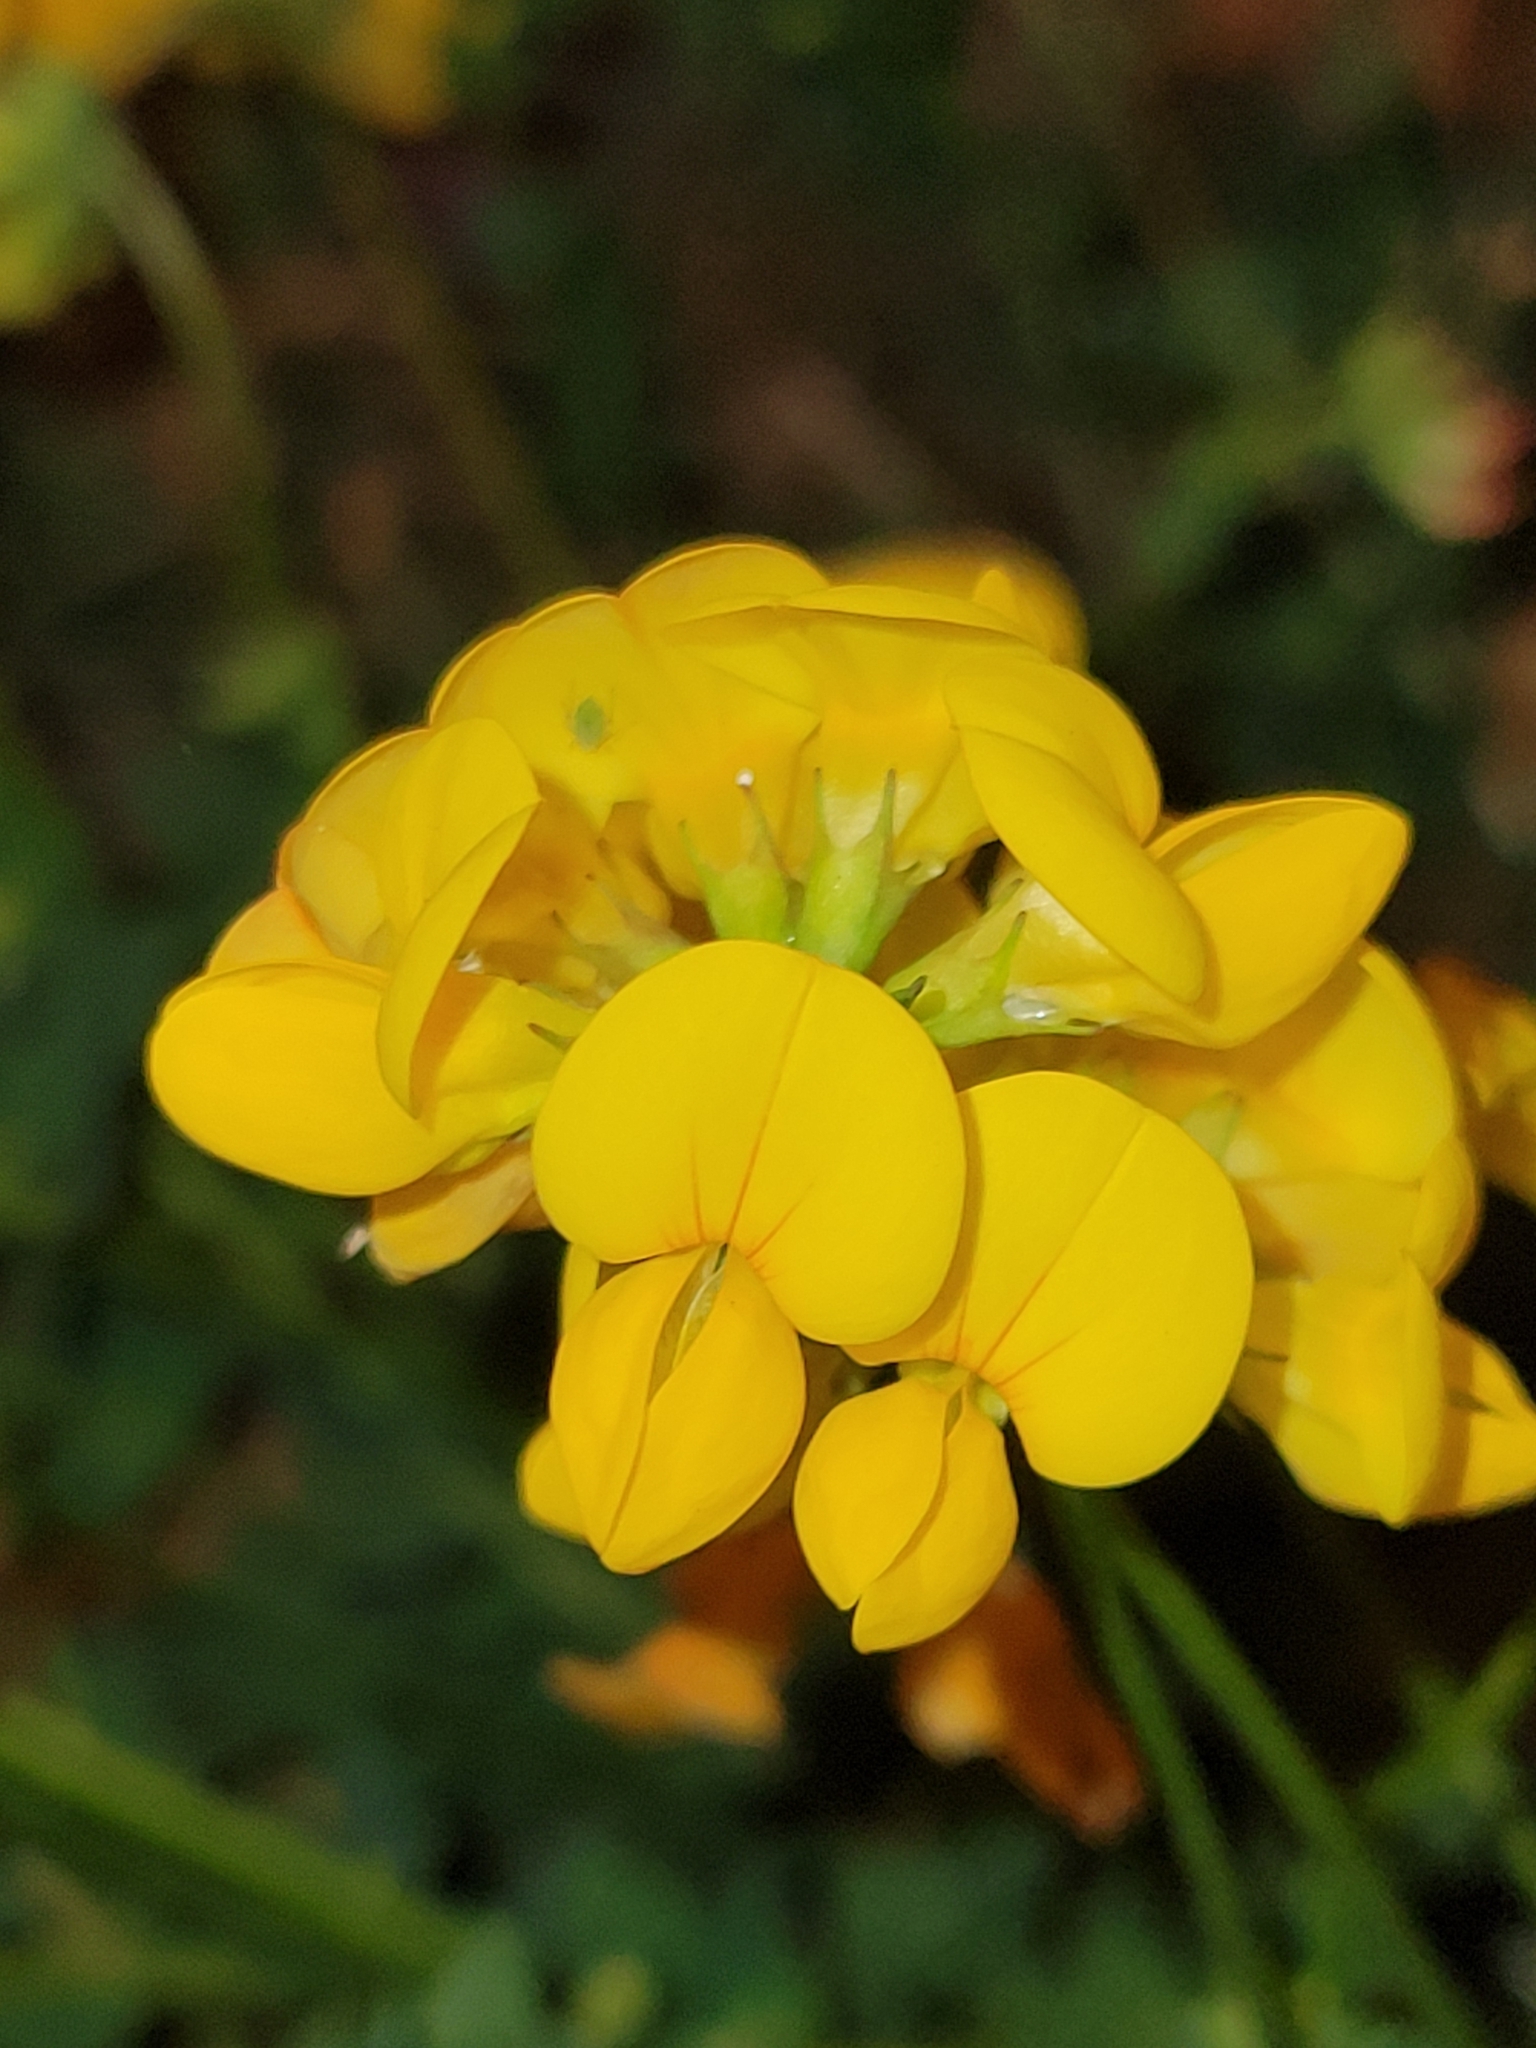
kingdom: Plantae
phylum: Tracheophyta
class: Magnoliopsida
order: Fabales
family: Fabaceae
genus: Lotus
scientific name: Lotus corniculatus
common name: Common bird's-foot-trefoil
